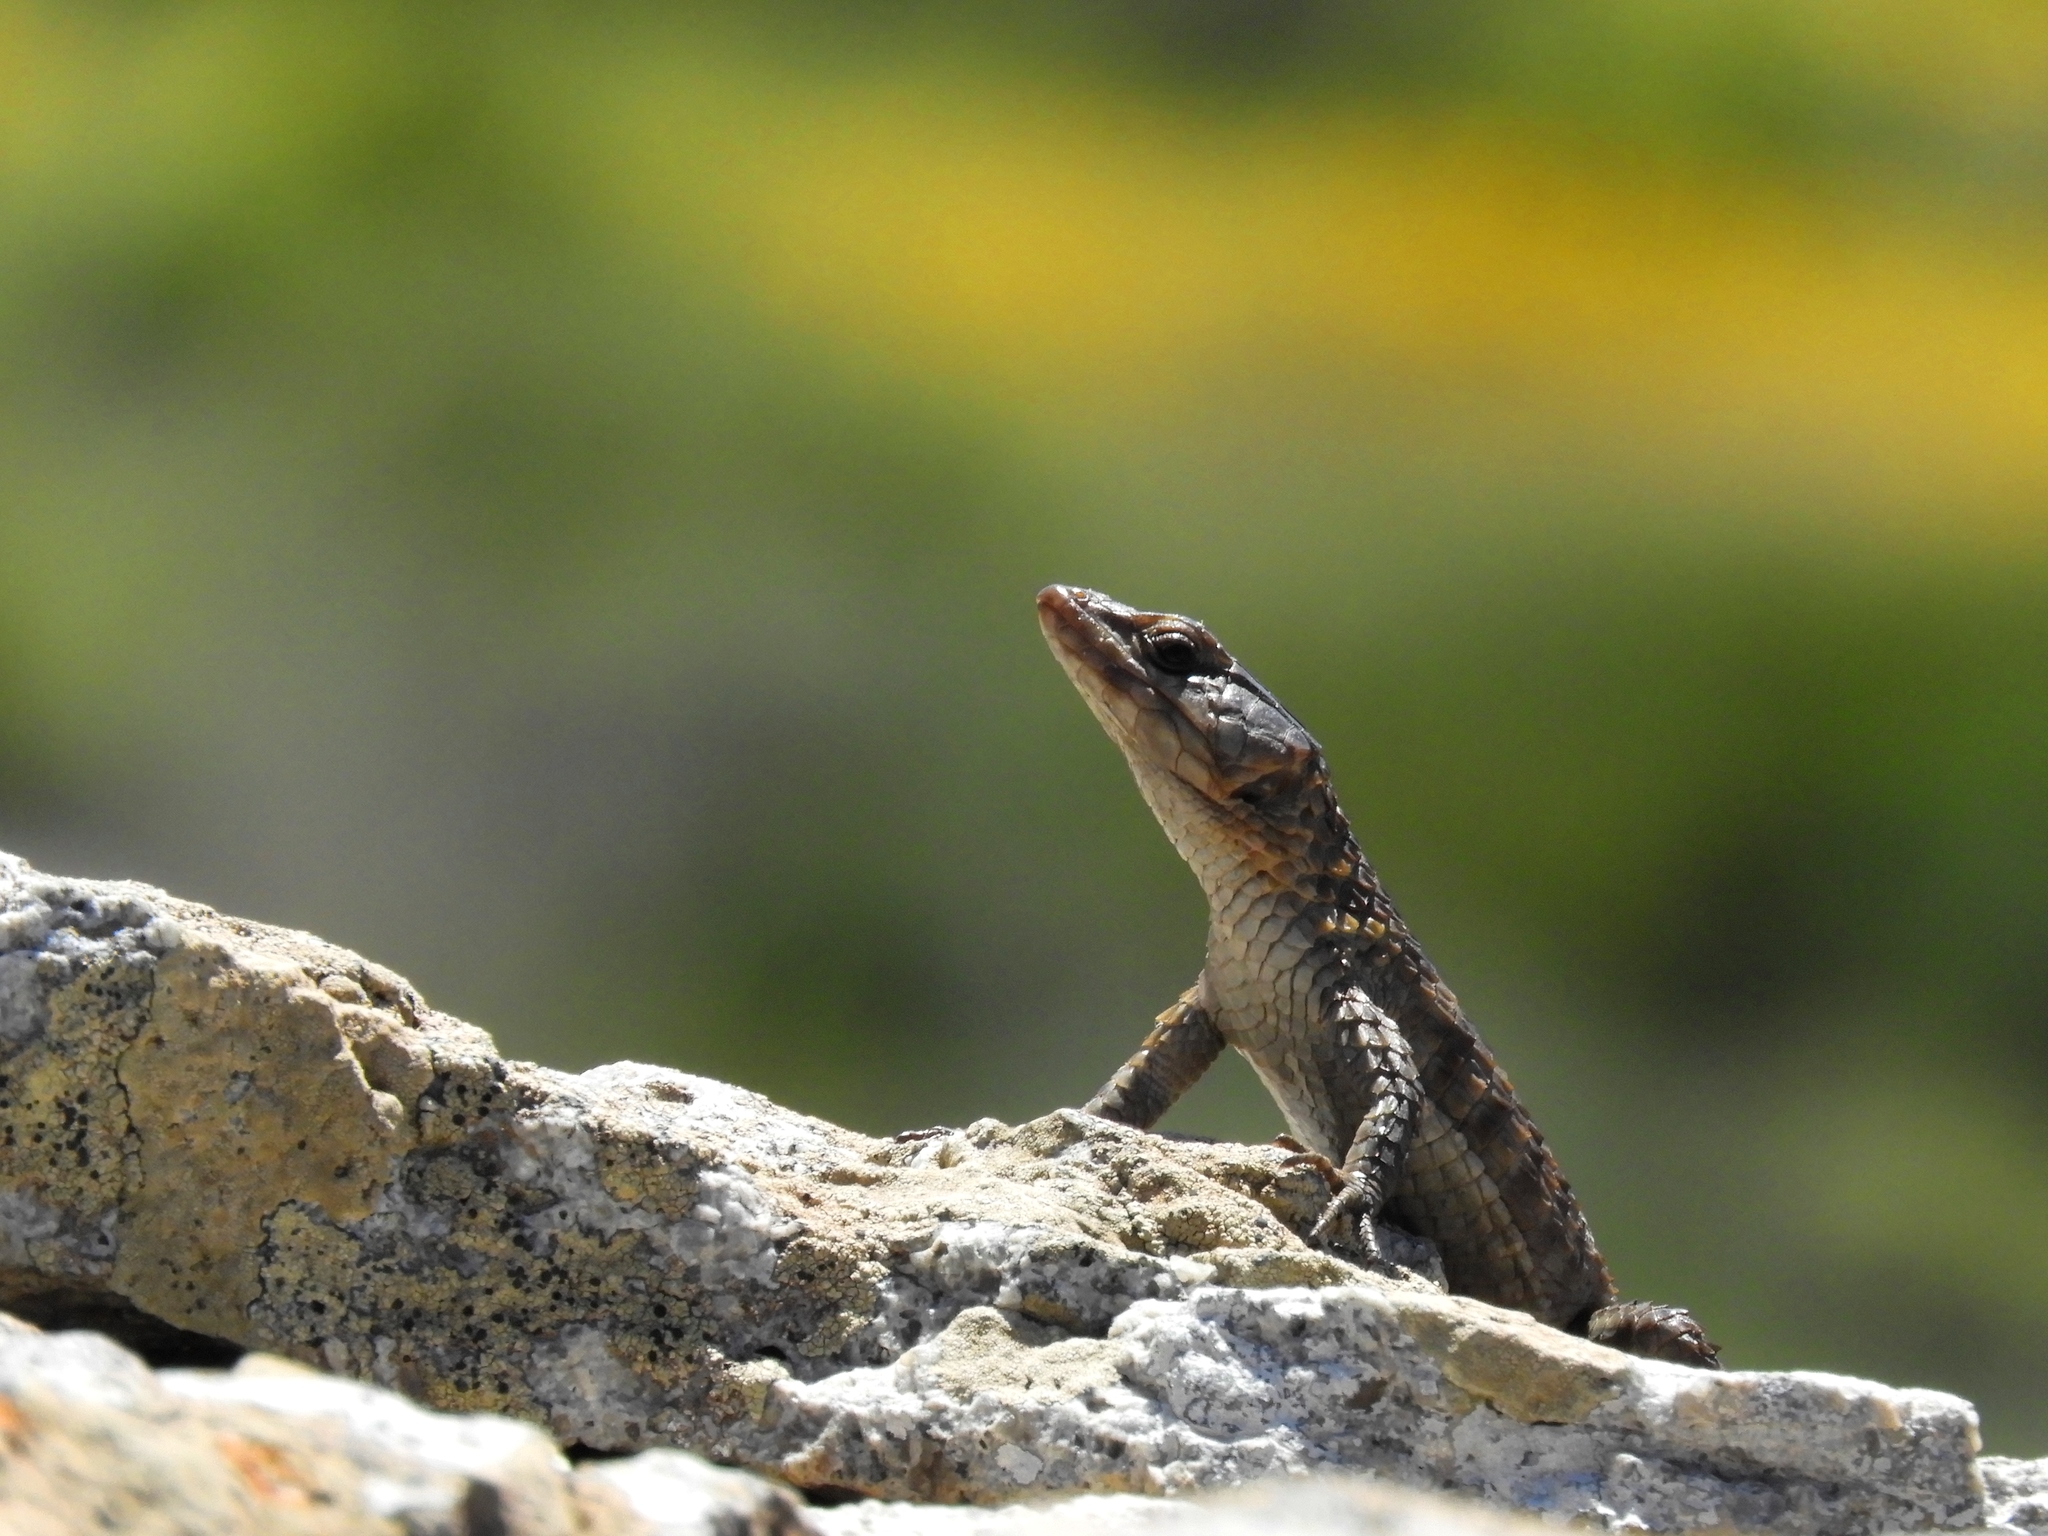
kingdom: Animalia
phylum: Chordata
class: Squamata
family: Cordylidae
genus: Cordylus
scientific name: Cordylus niger
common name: Black girdled lizard
